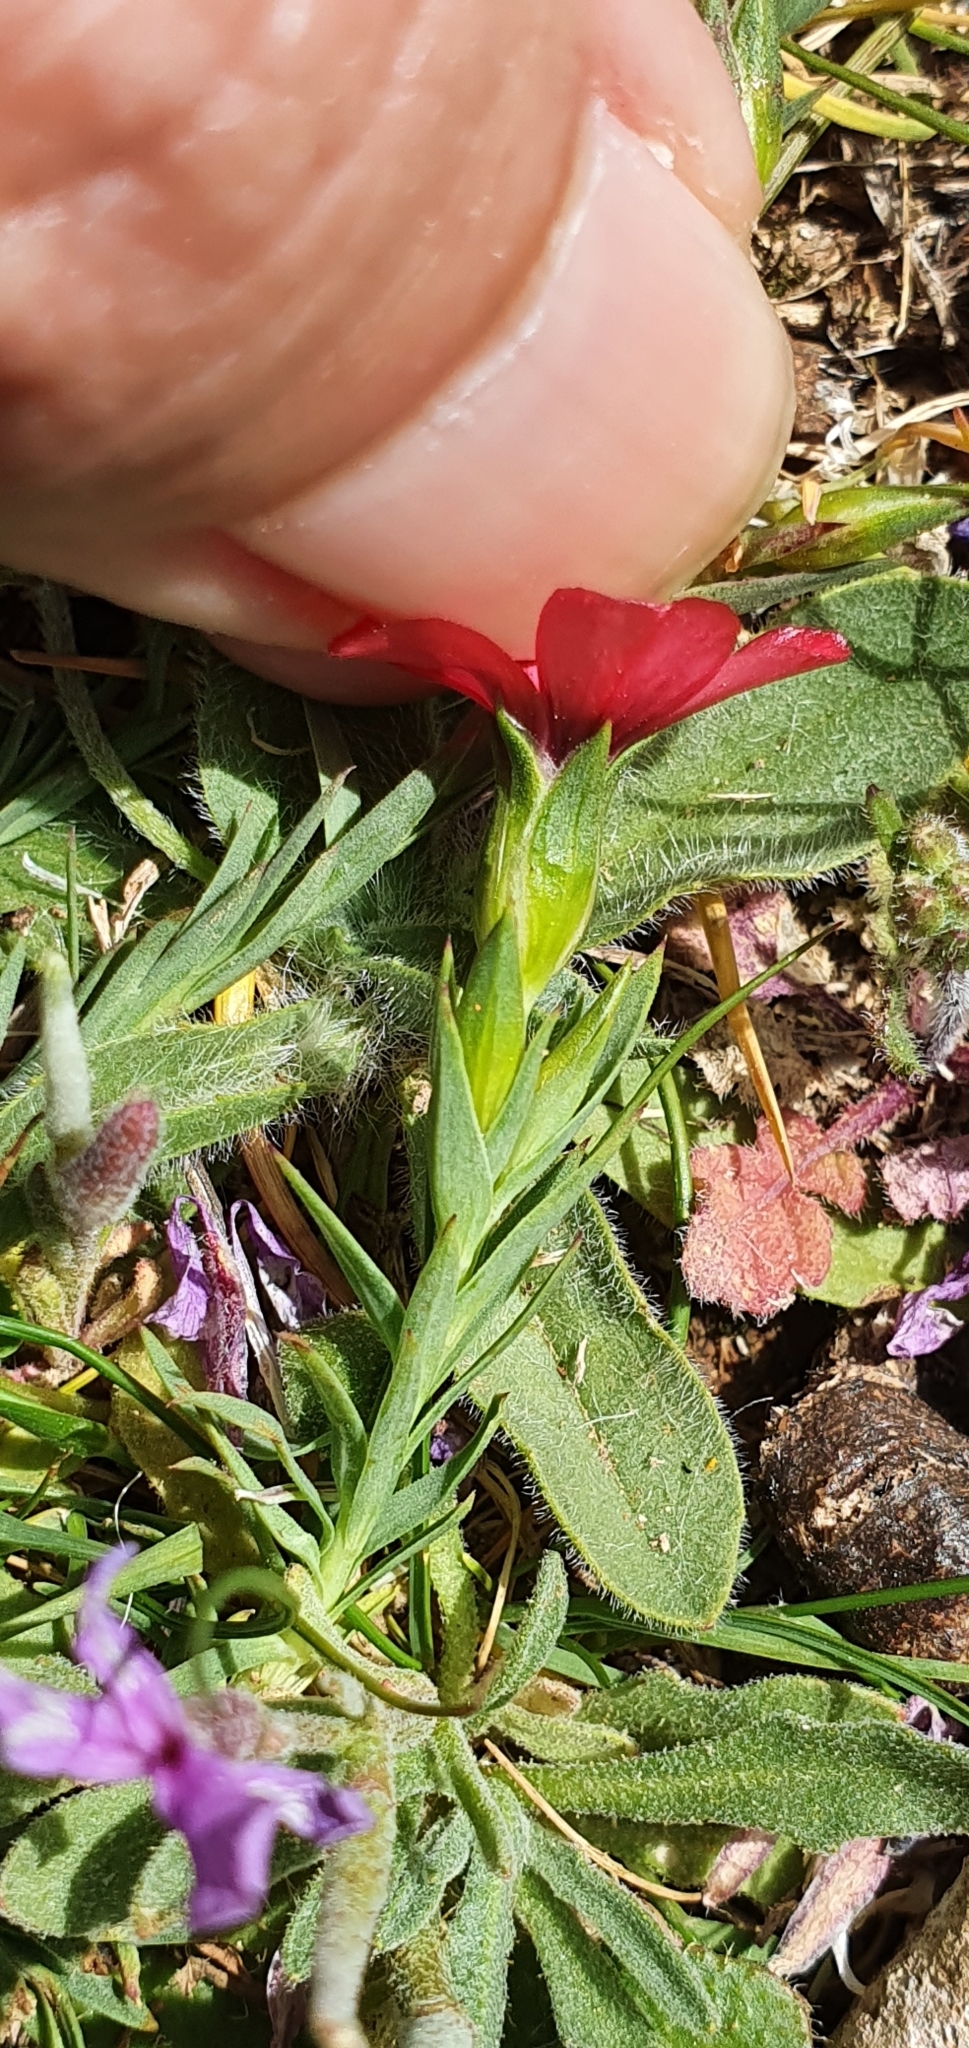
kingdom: Plantae
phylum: Tracheophyta
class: Magnoliopsida
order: Malpighiales
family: Linaceae
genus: Linum
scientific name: Linum decumbens
